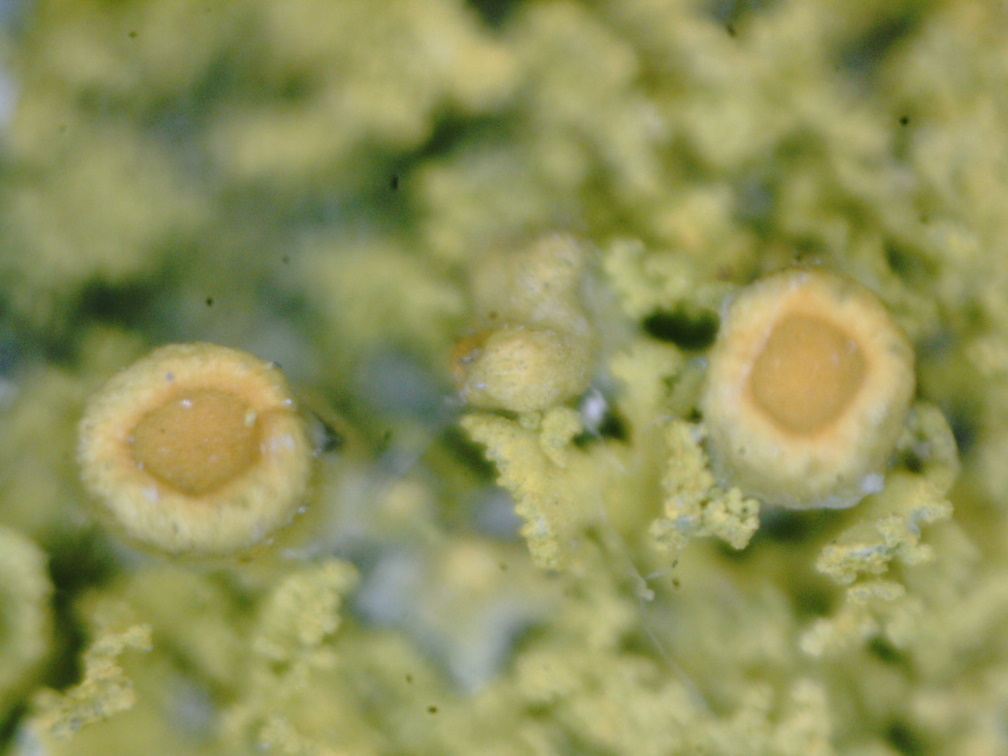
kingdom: Fungi
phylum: Ascomycota
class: Candelariomycetes
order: Candelariales
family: Candelariaceae
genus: Candelaria
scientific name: Candelaria pacifica
